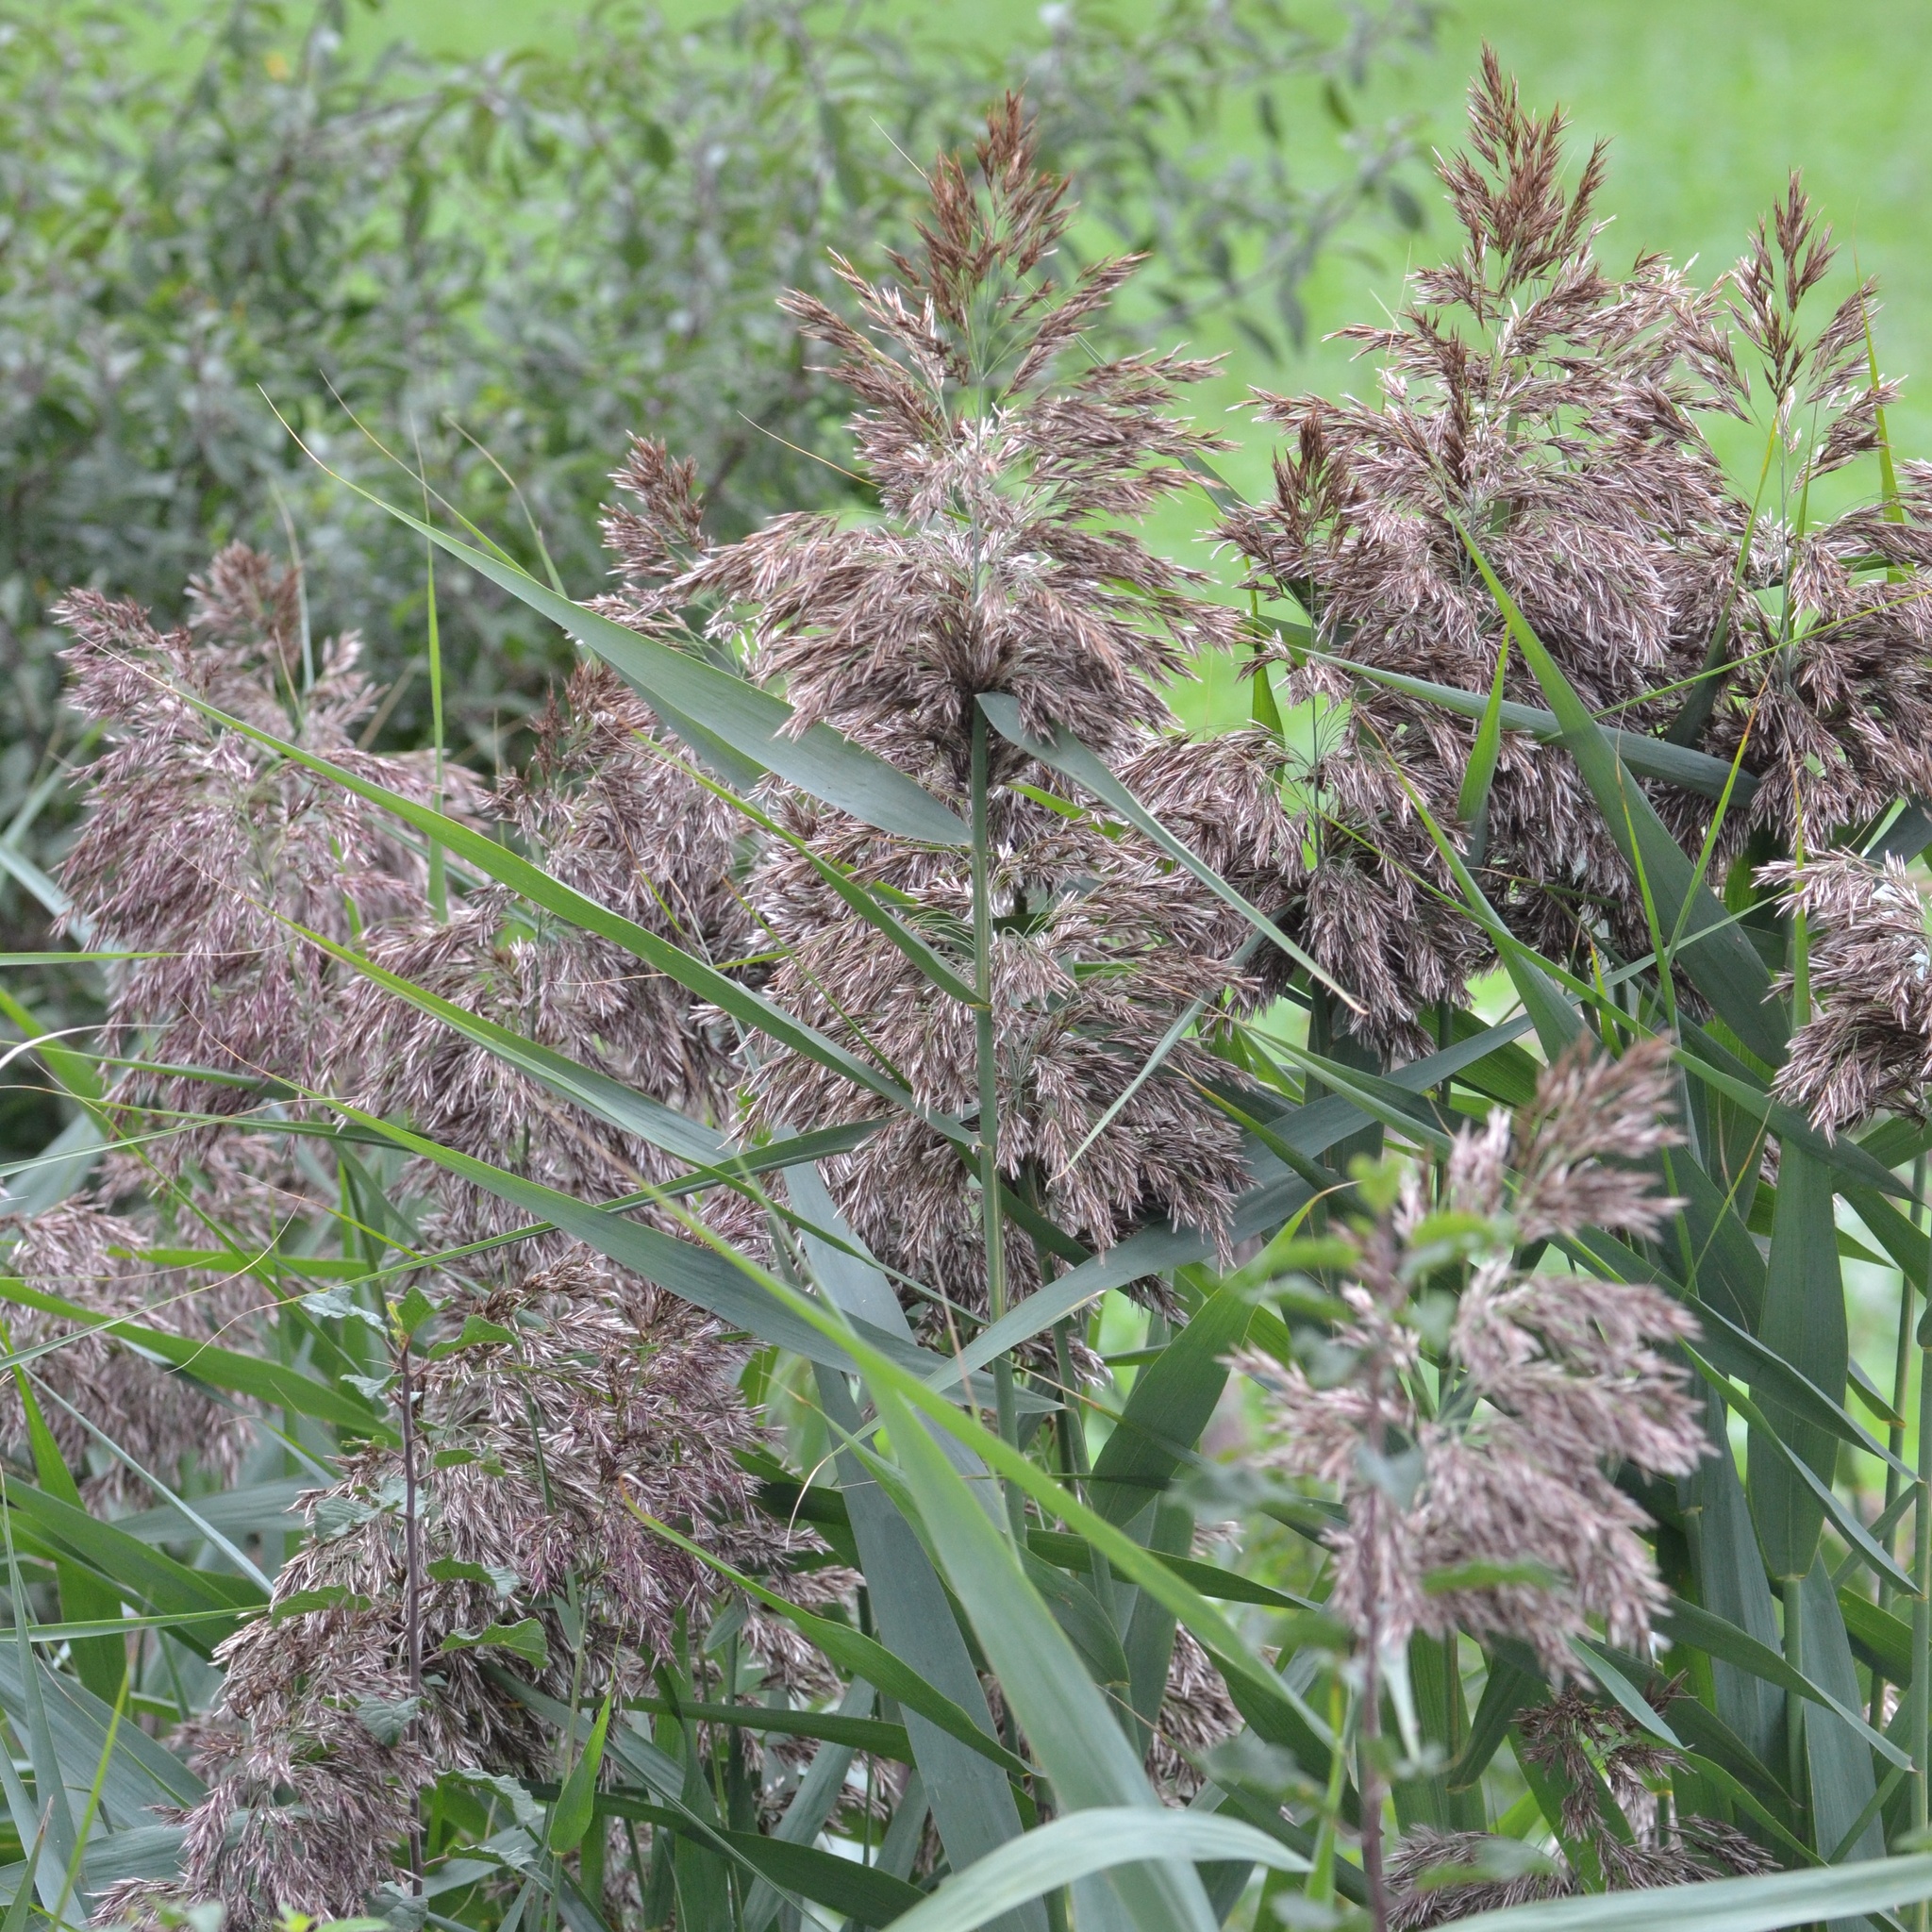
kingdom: Plantae
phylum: Tracheophyta
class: Liliopsida
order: Poales
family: Poaceae
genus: Phragmites
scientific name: Phragmites australis
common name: Common reed
